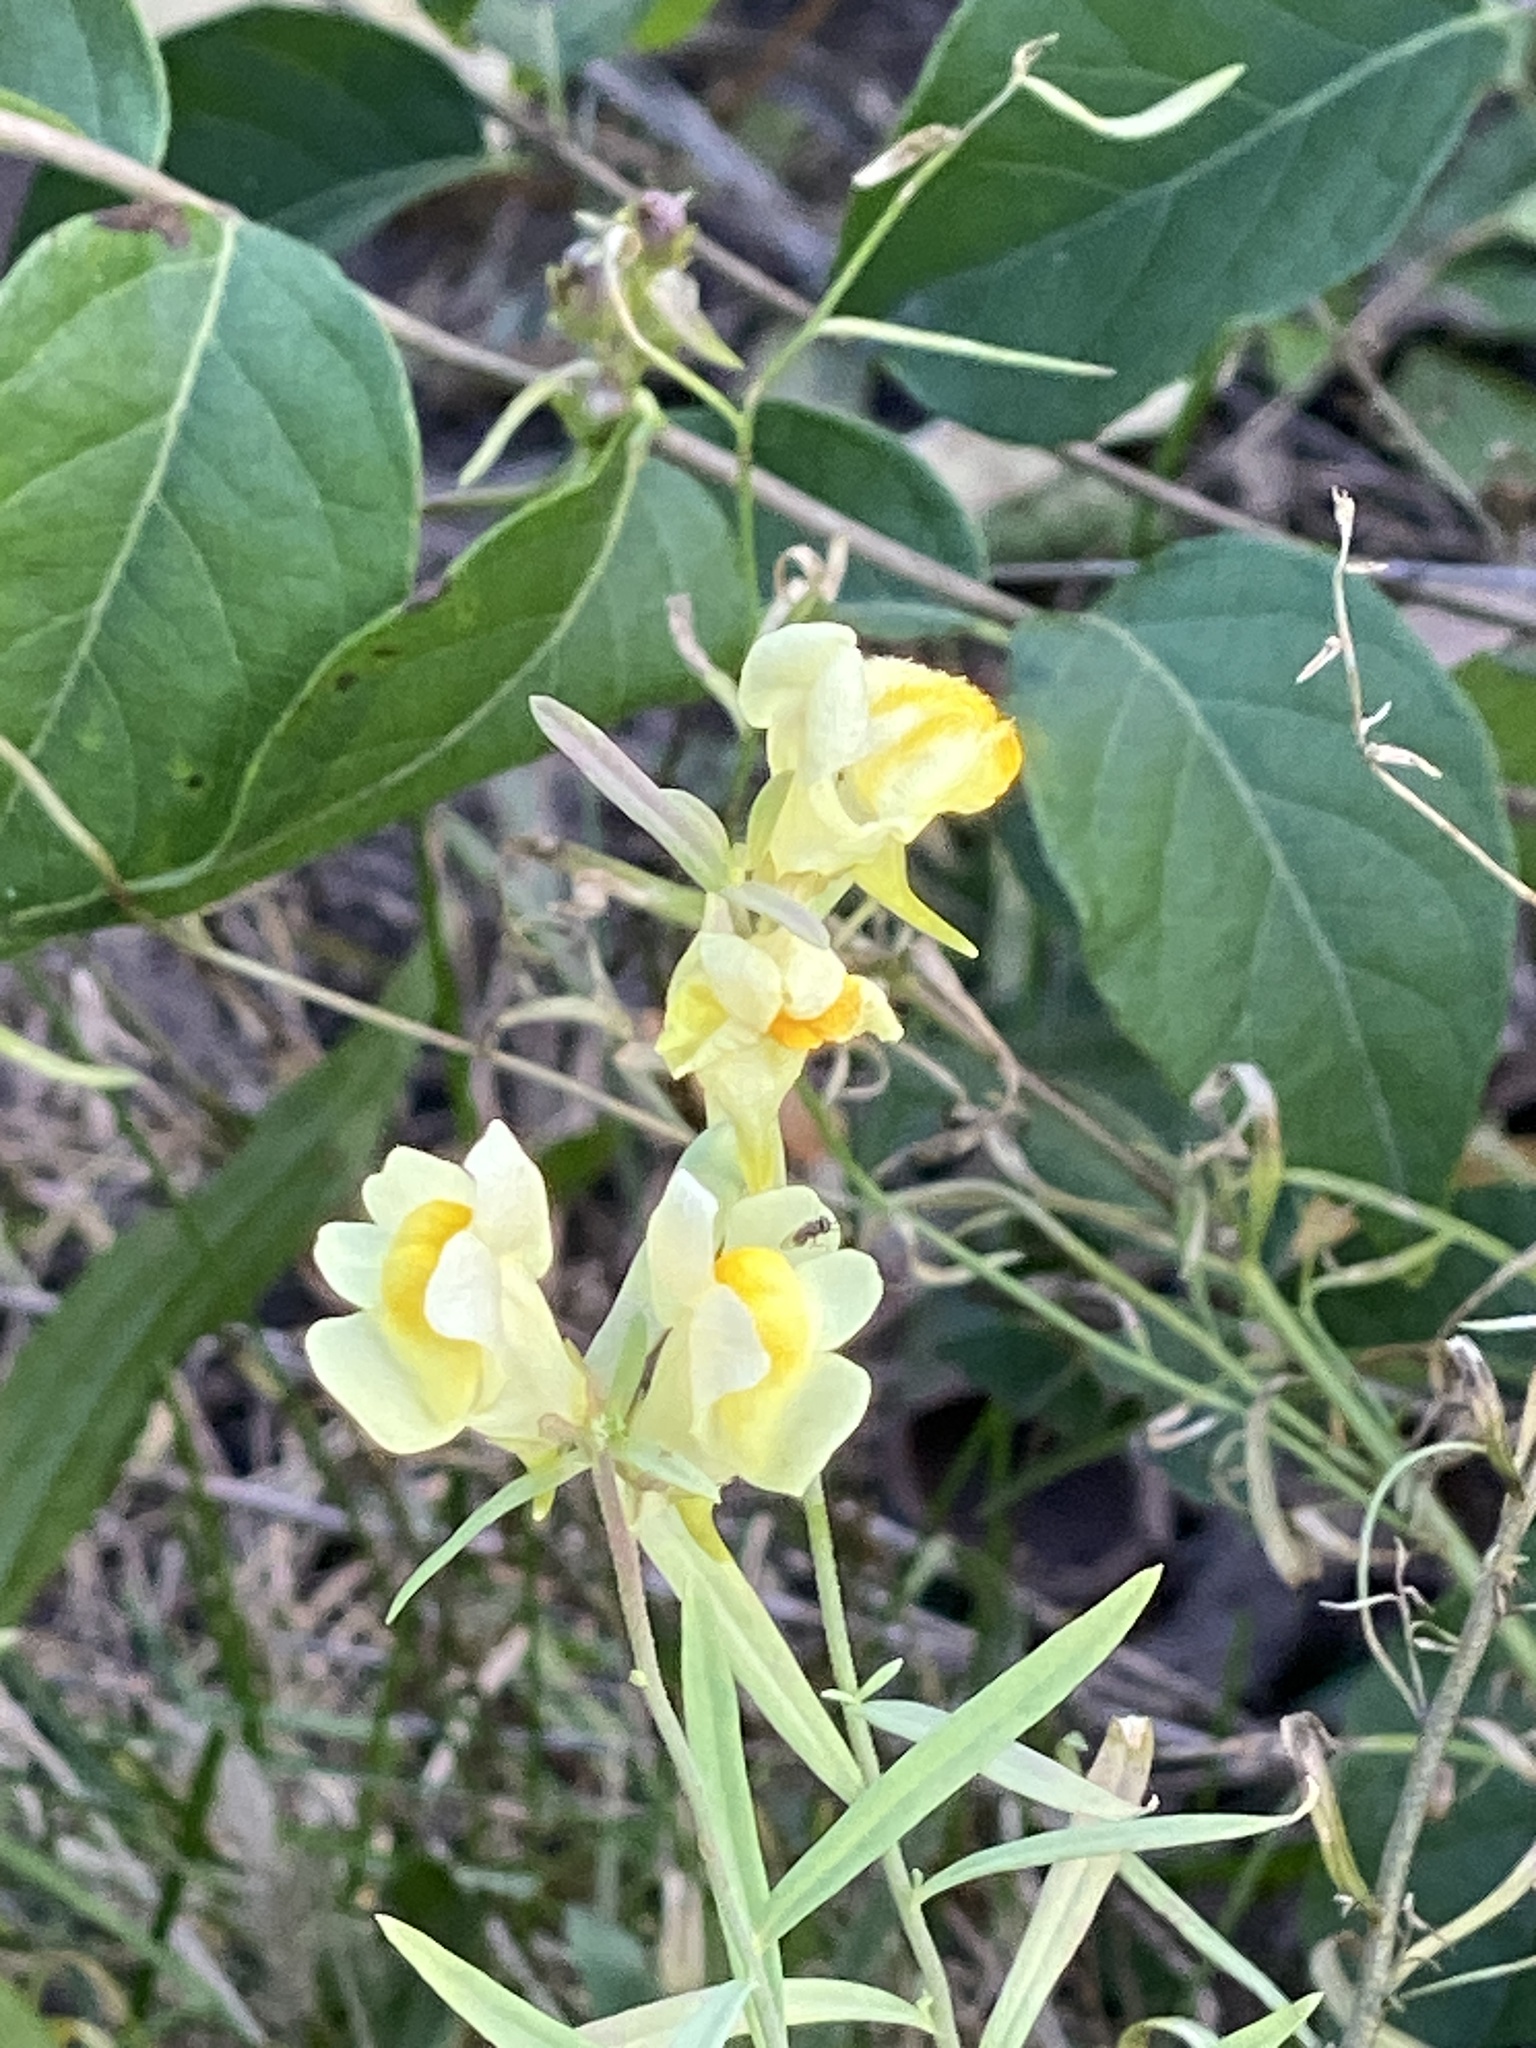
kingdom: Plantae
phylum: Tracheophyta
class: Magnoliopsida
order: Lamiales
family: Plantaginaceae
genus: Linaria
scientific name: Linaria vulgaris
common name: Butter and eggs
